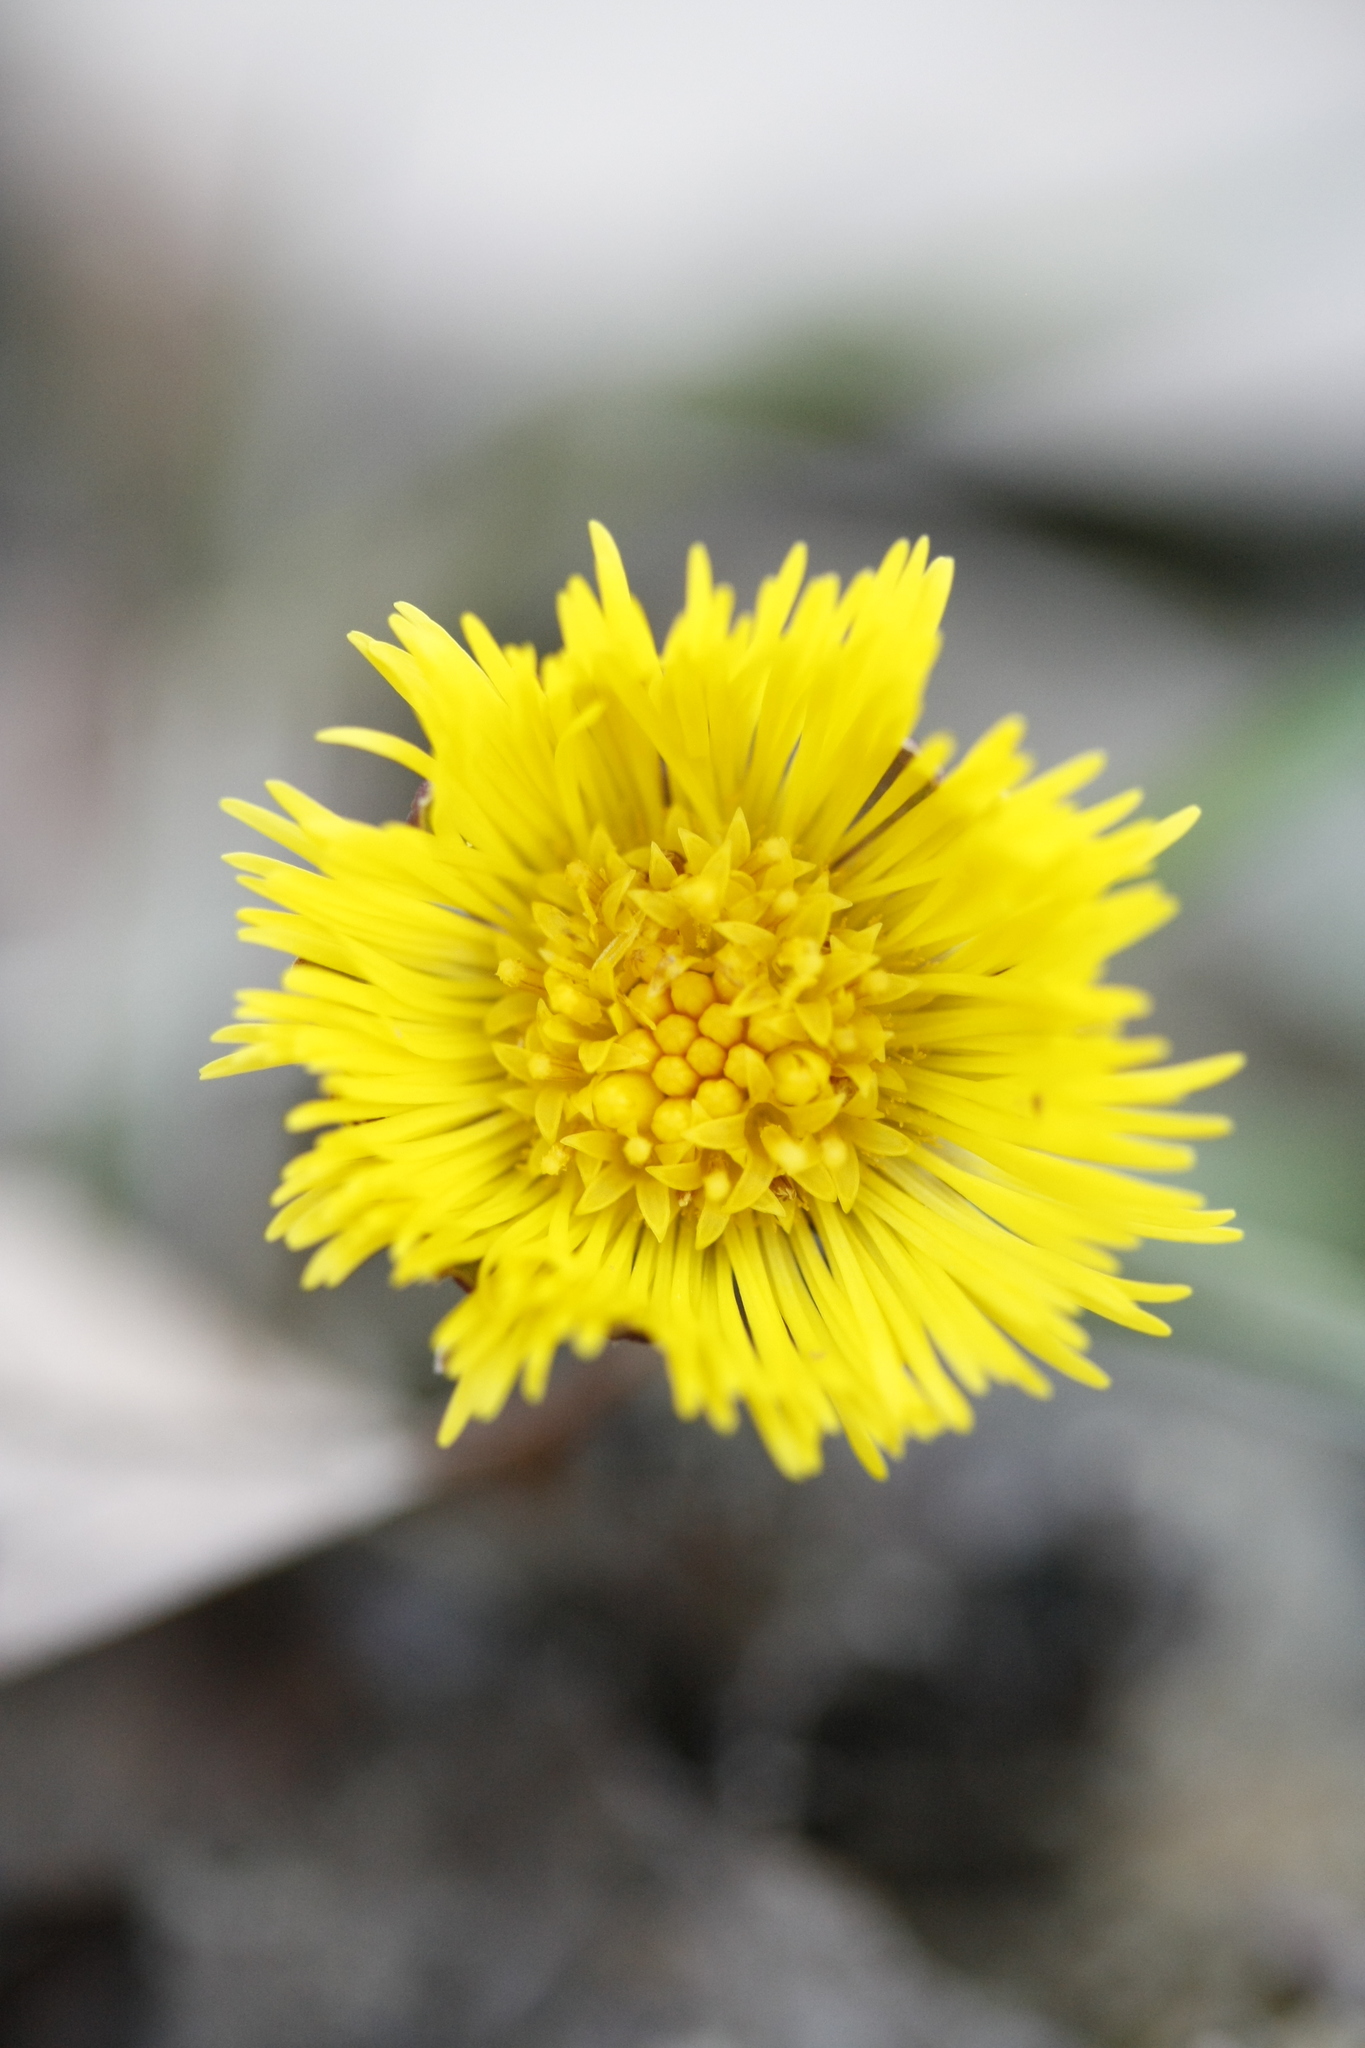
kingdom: Plantae
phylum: Tracheophyta
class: Magnoliopsida
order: Asterales
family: Asteraceae
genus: Tussilago
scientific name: Tussilago farfara
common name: Coltsfoot
